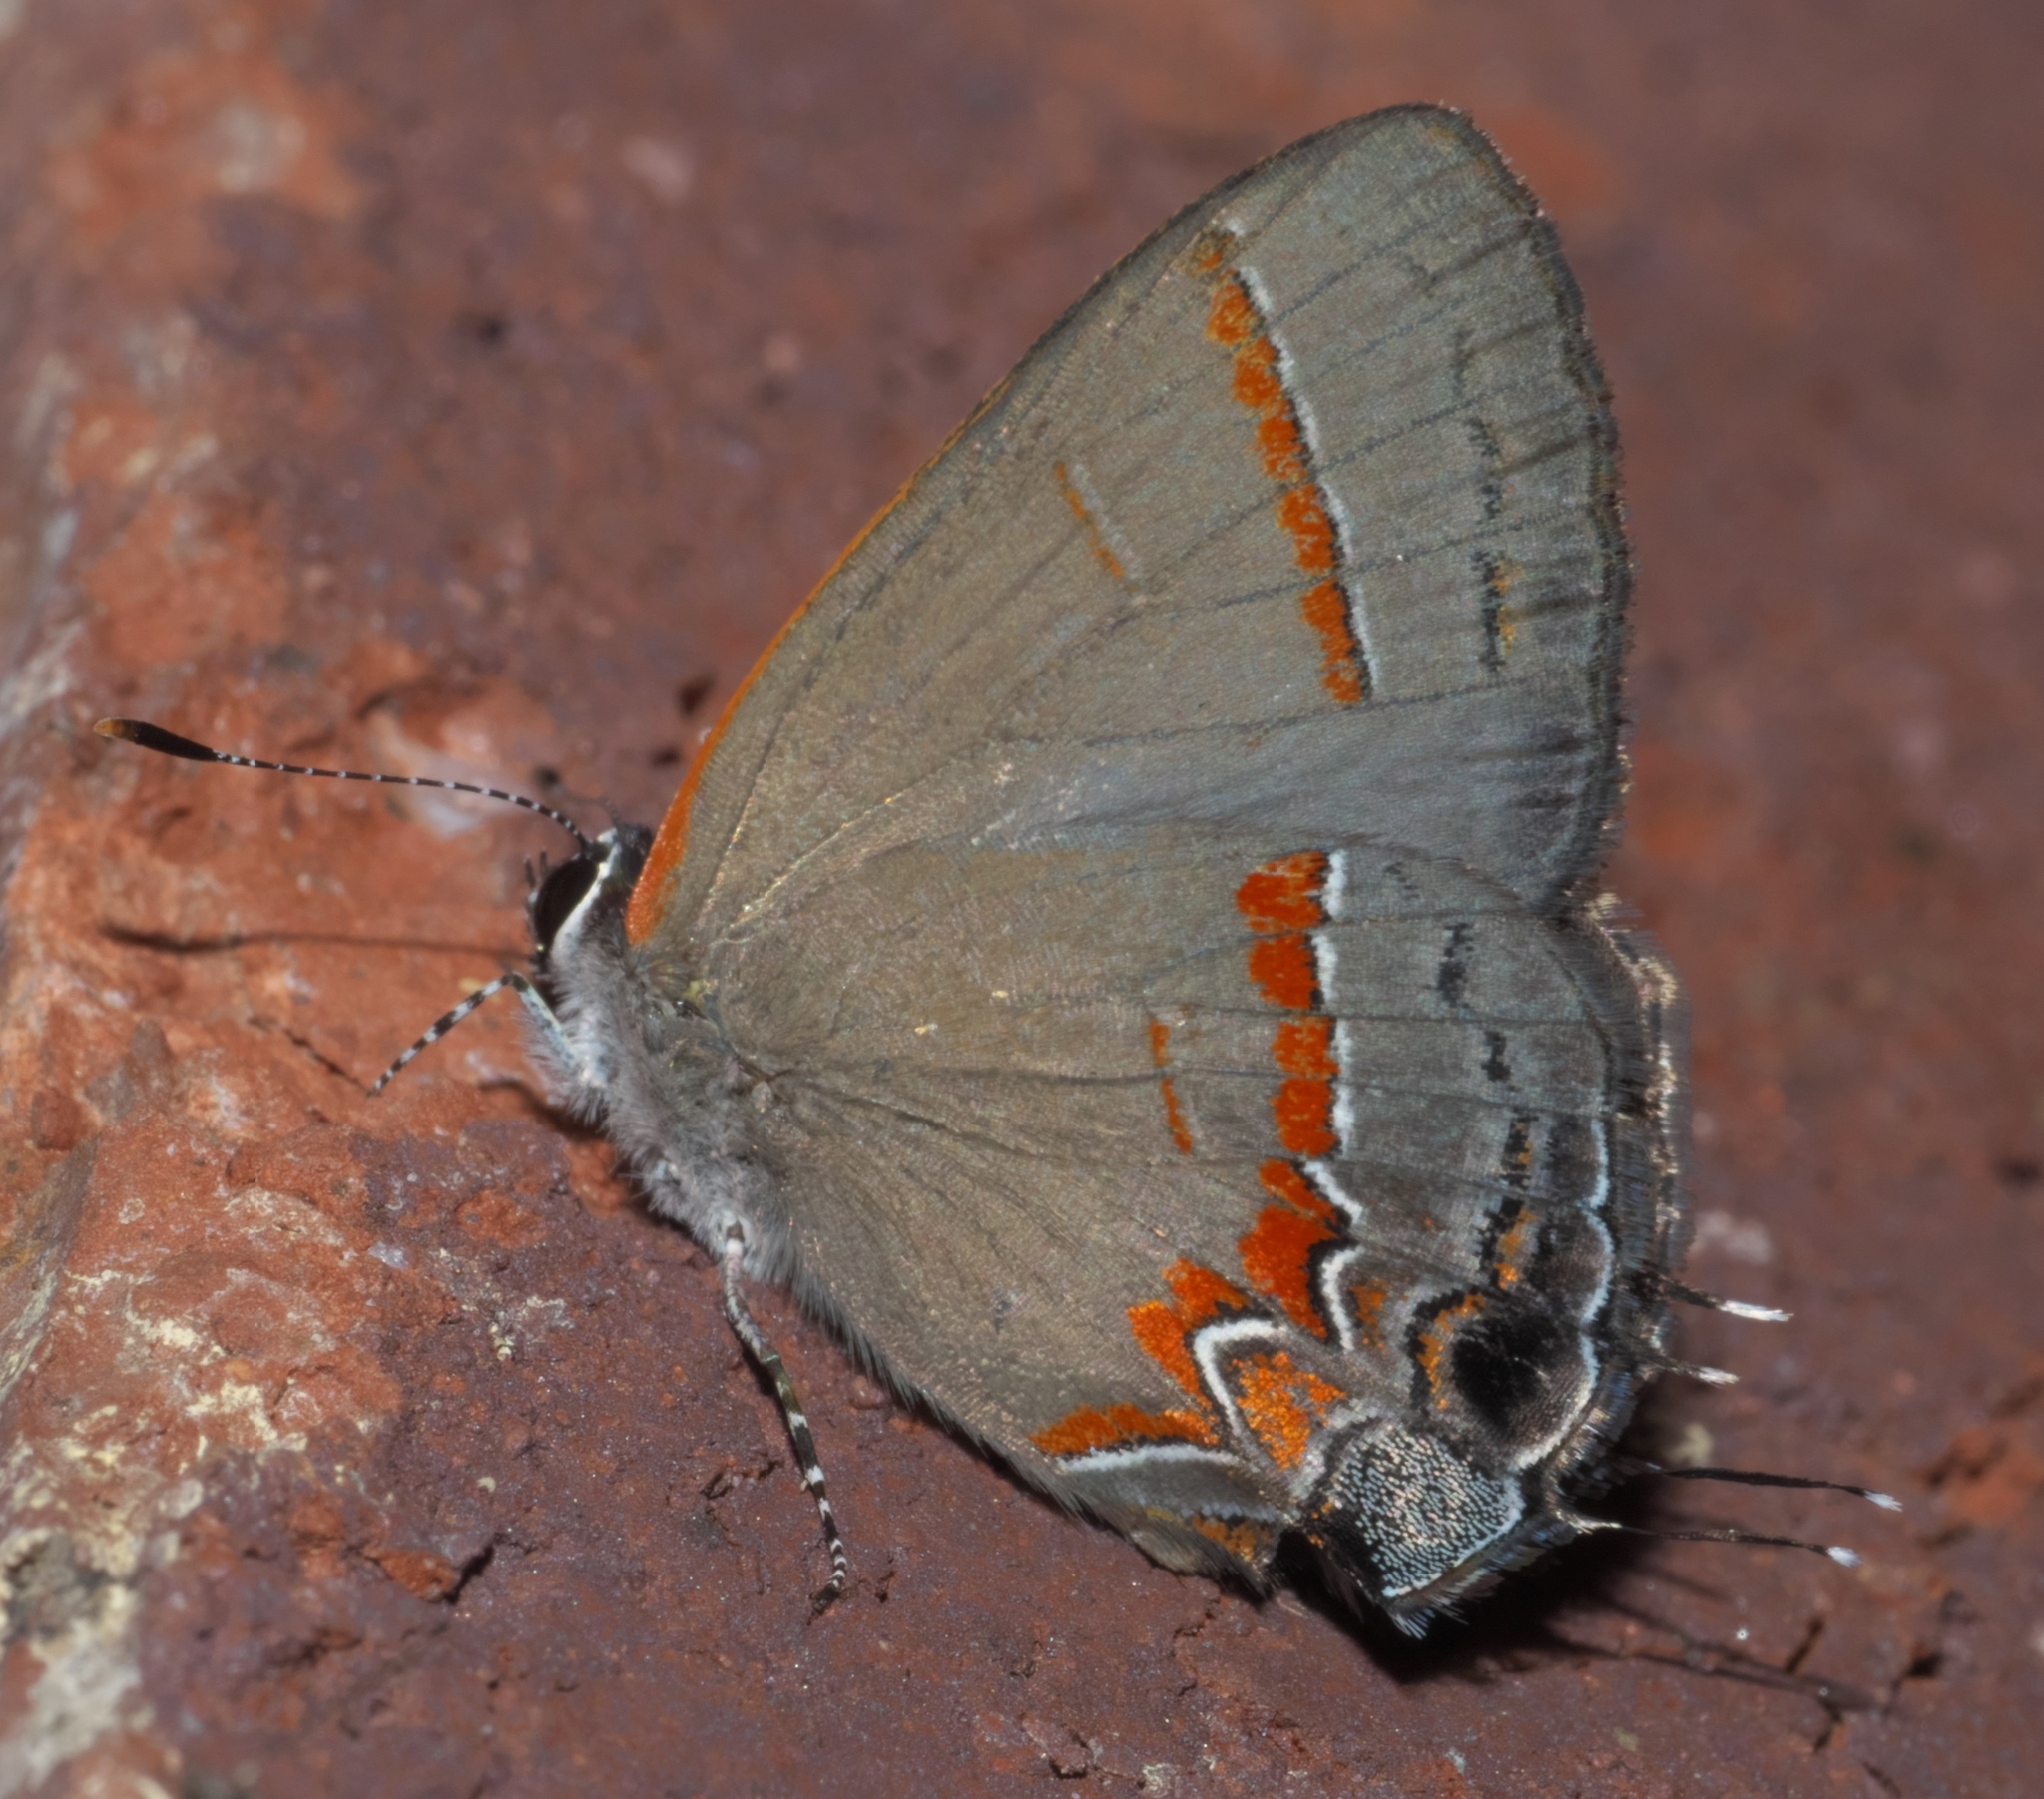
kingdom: Animalia
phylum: Arthropoda
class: Insecta
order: Lepidoptera
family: Lycaenidae
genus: Calycopis
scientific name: Calycopis cecrops
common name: Red-banded hairstreak
